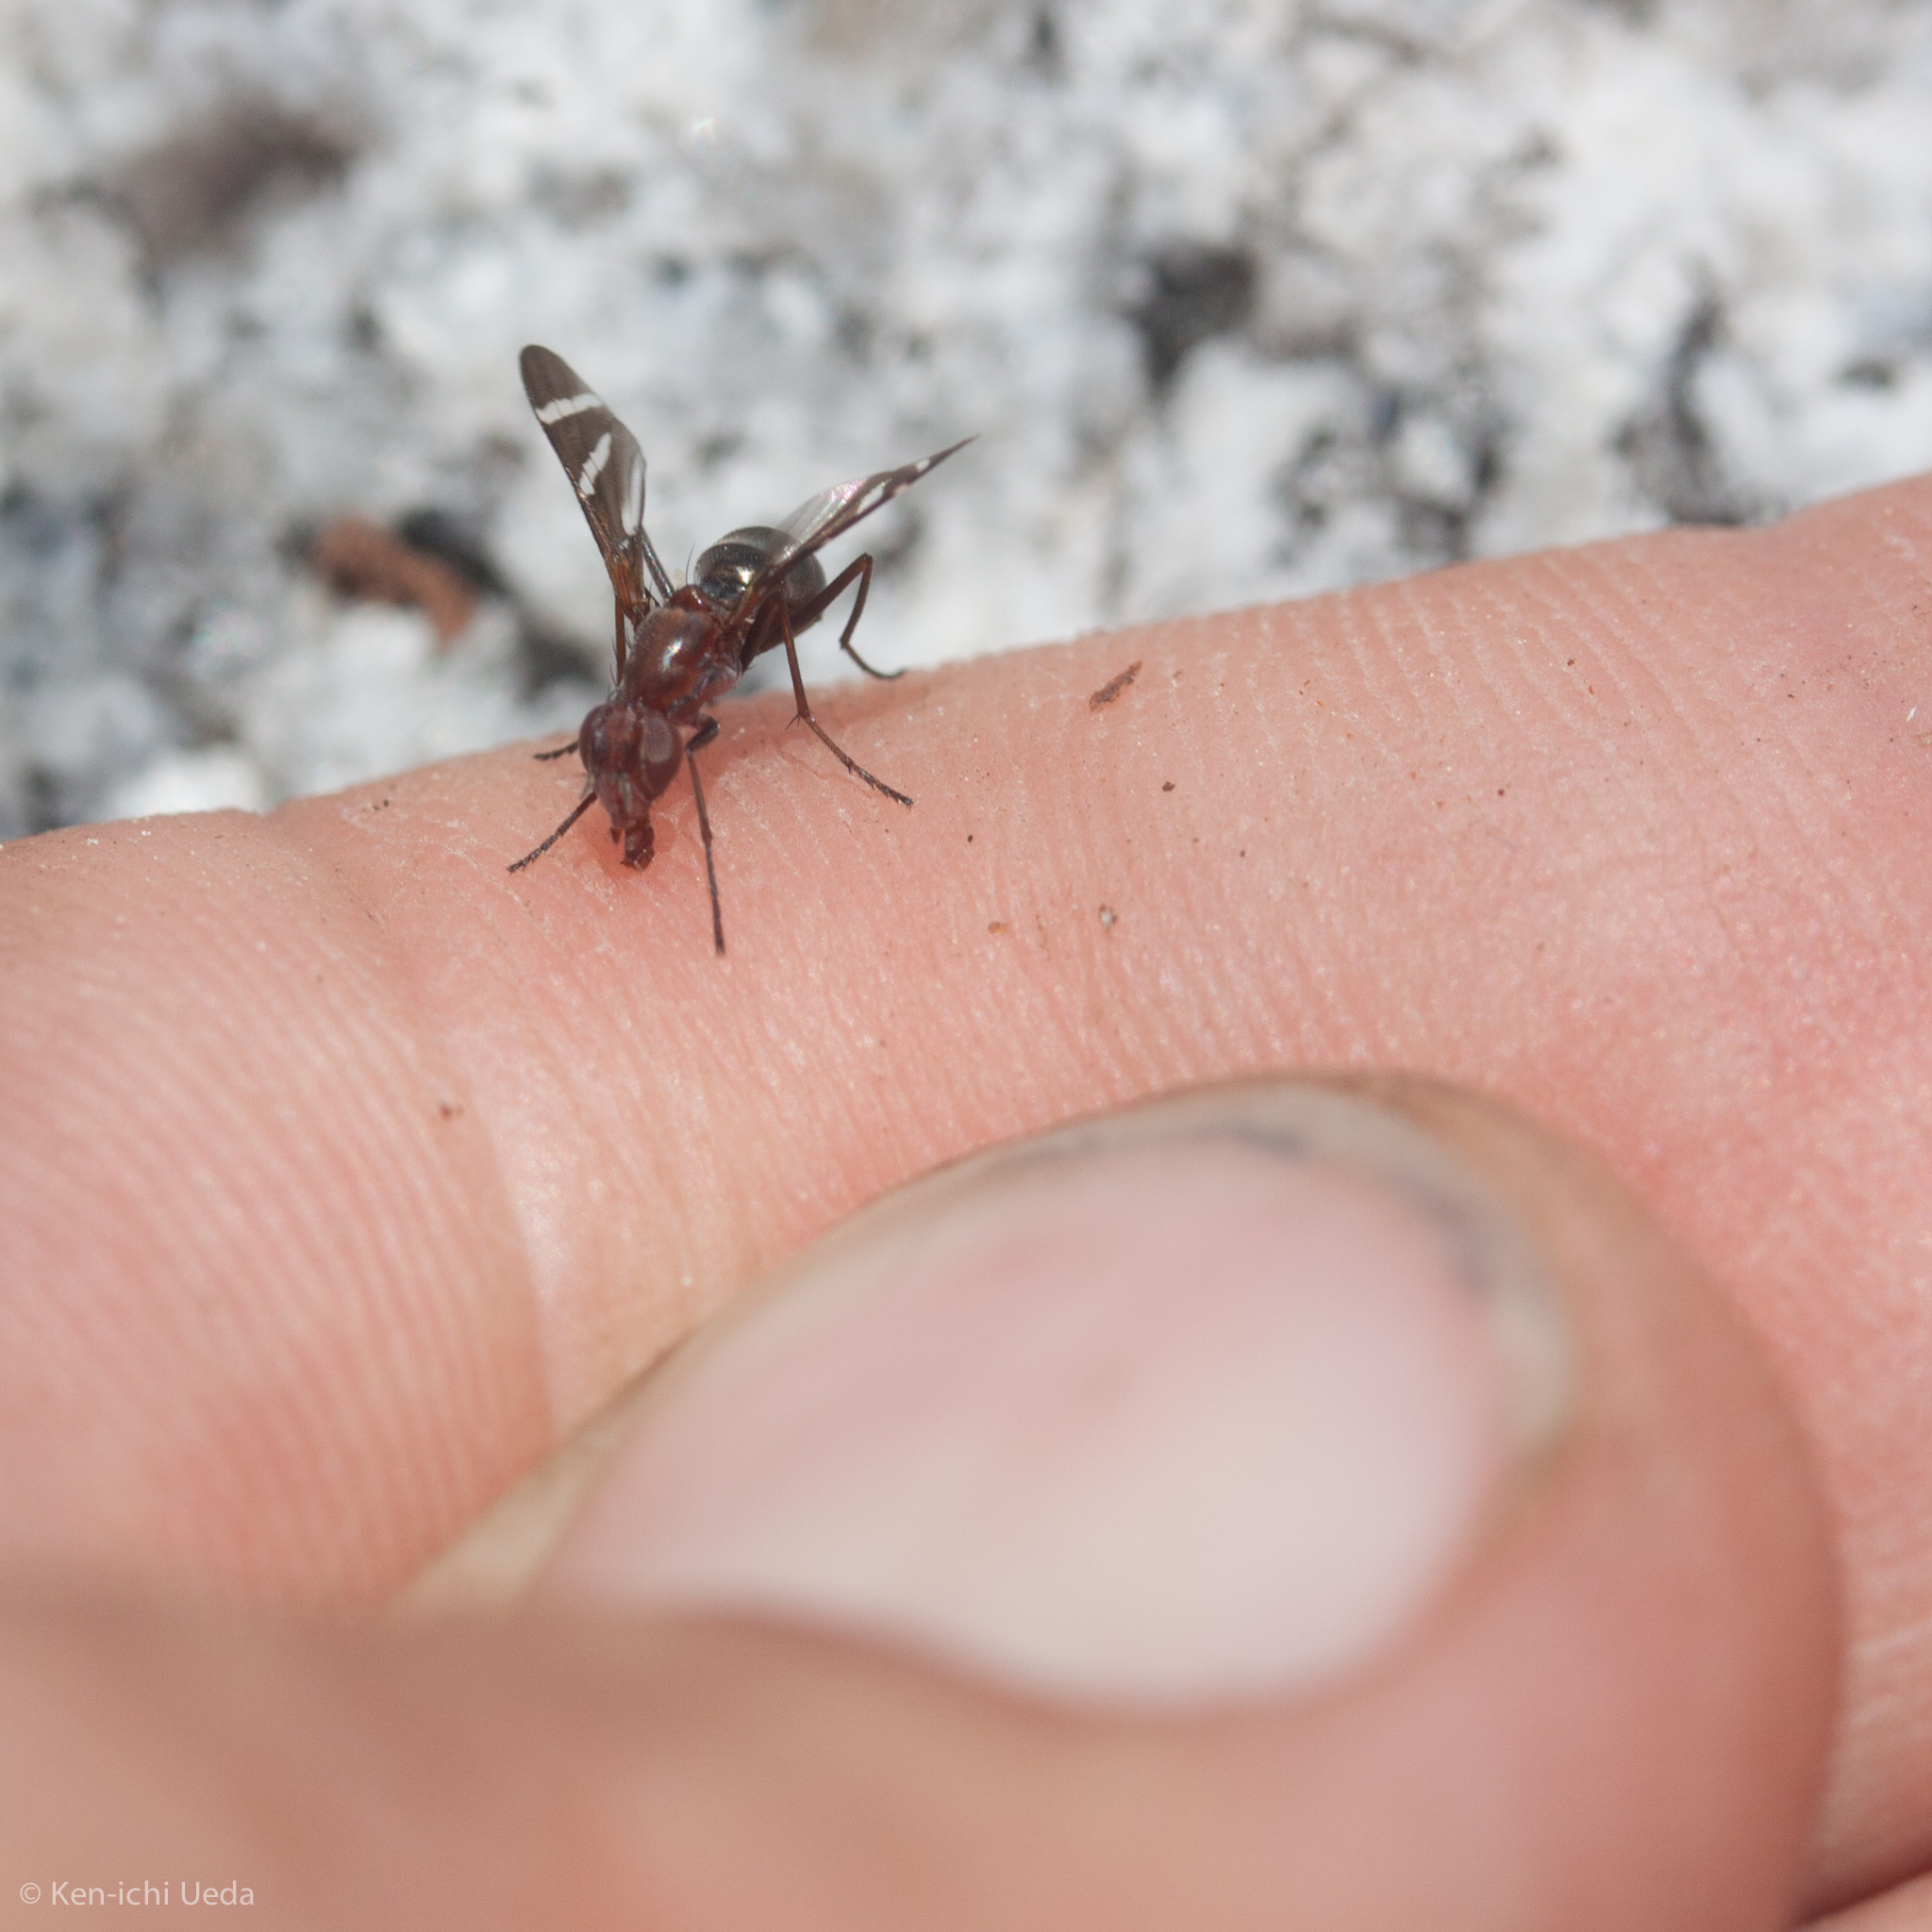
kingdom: Animalia
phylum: Arthropoda
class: Insecta
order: Diptera
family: Ulidiidae
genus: Tritoxa
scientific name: Tritoxa cuneata
